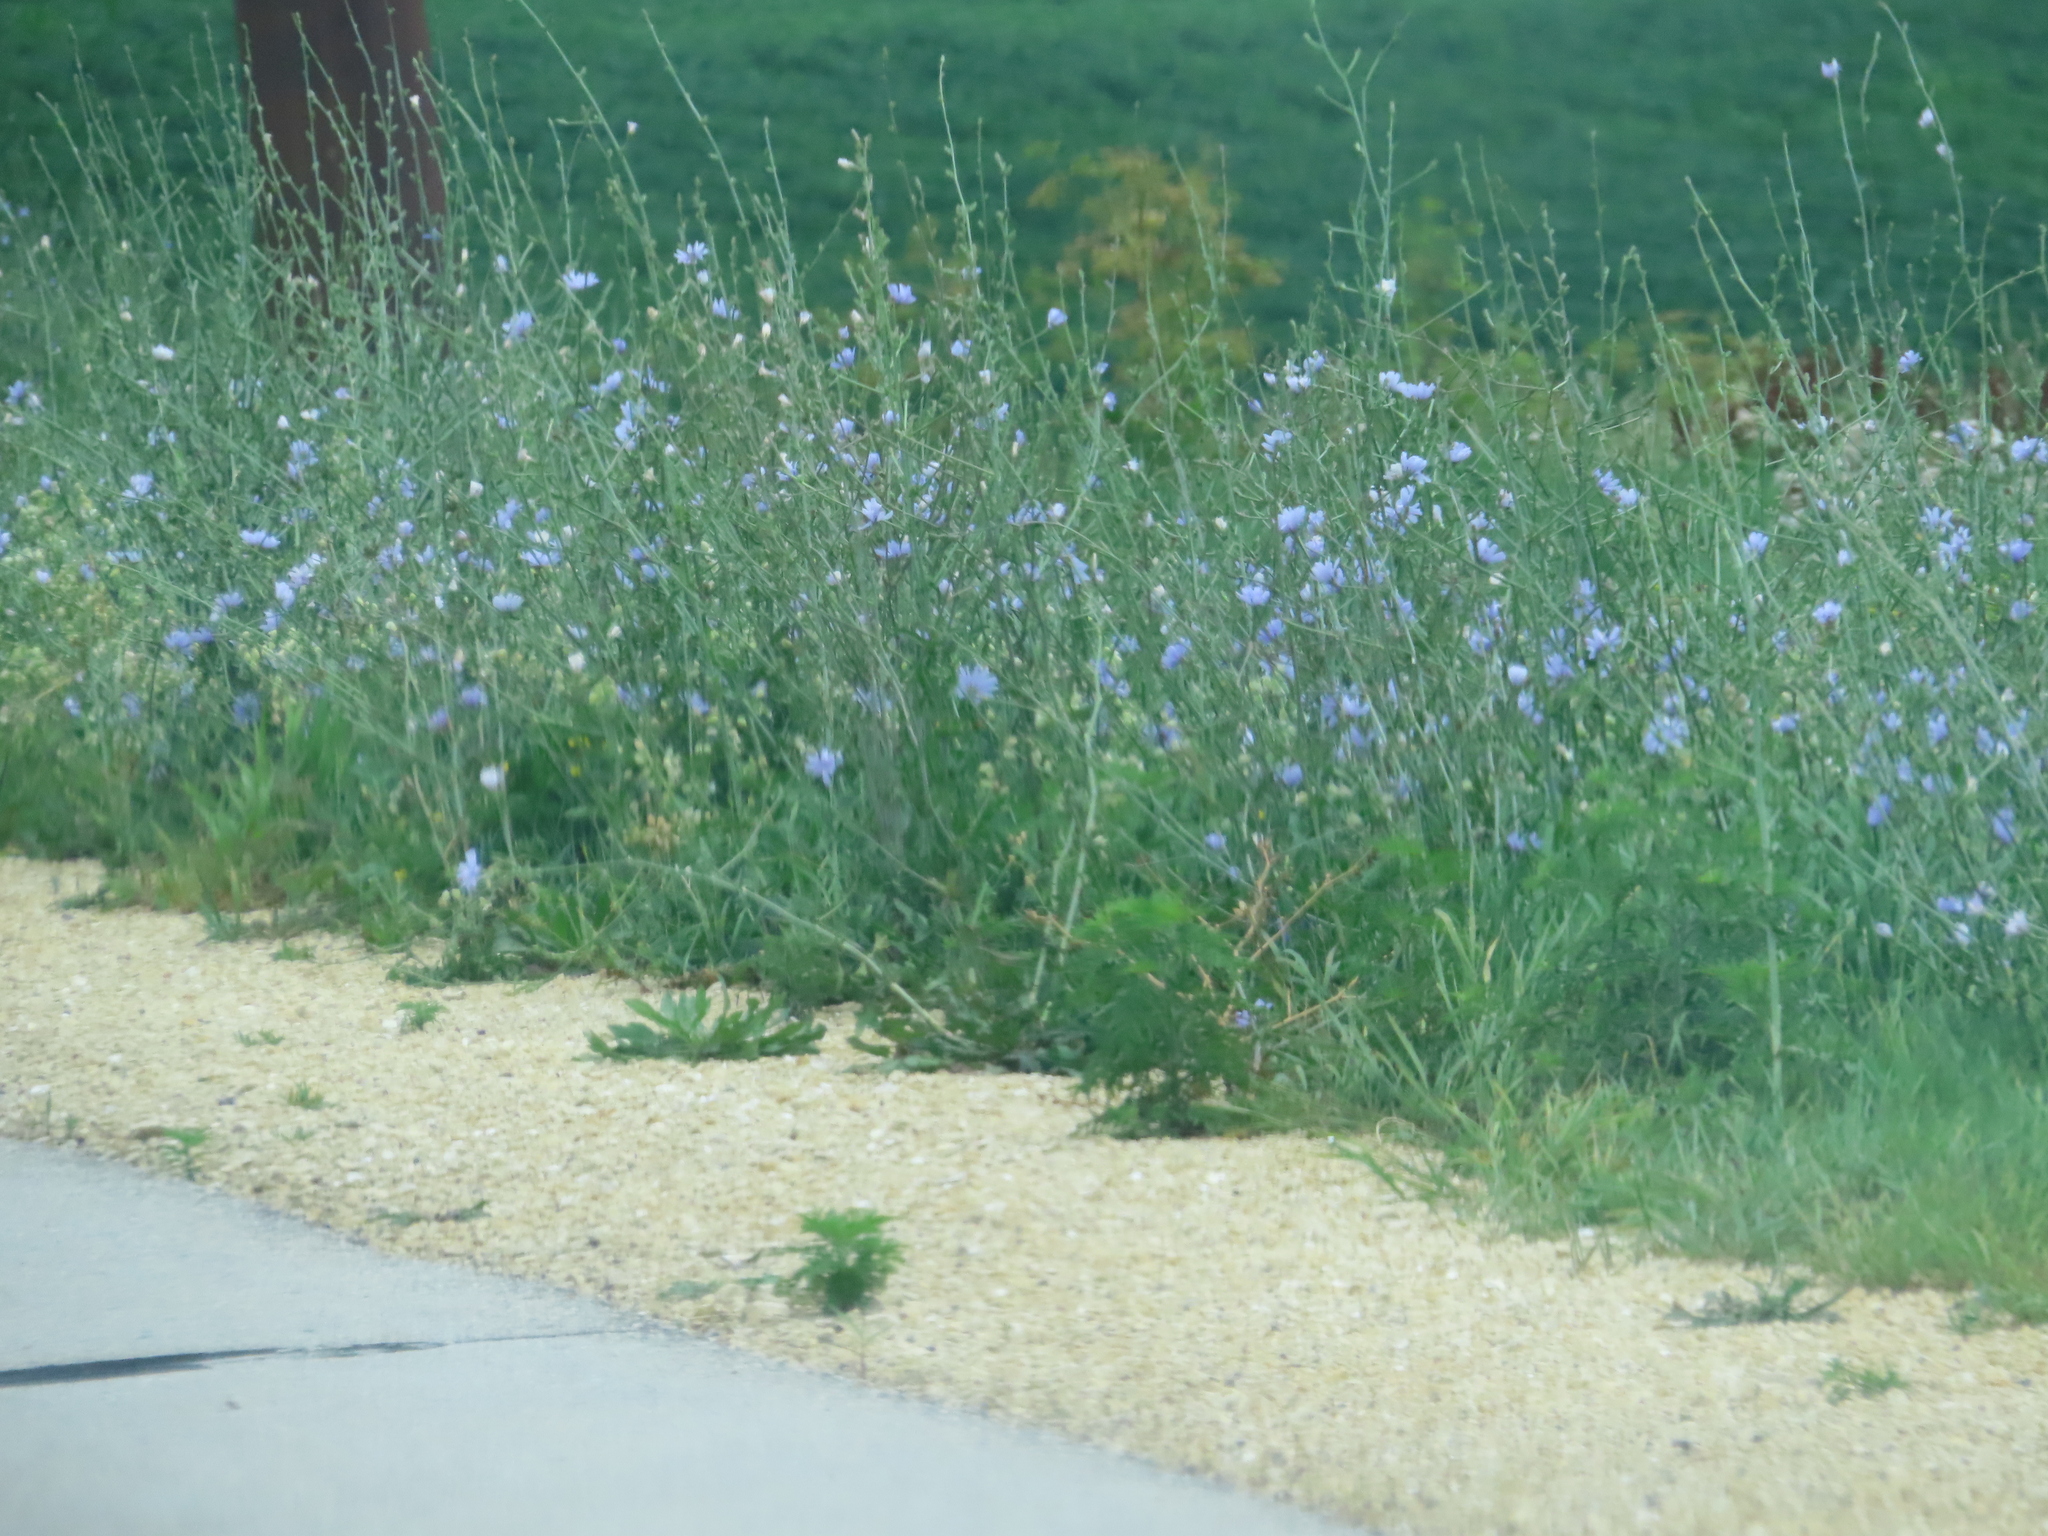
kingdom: Plantae
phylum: Tracheophyta
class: Magnoliopsida
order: Asterales
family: Asteraceae
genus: Cichorium
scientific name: Cichorium intybus
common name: Chicory
